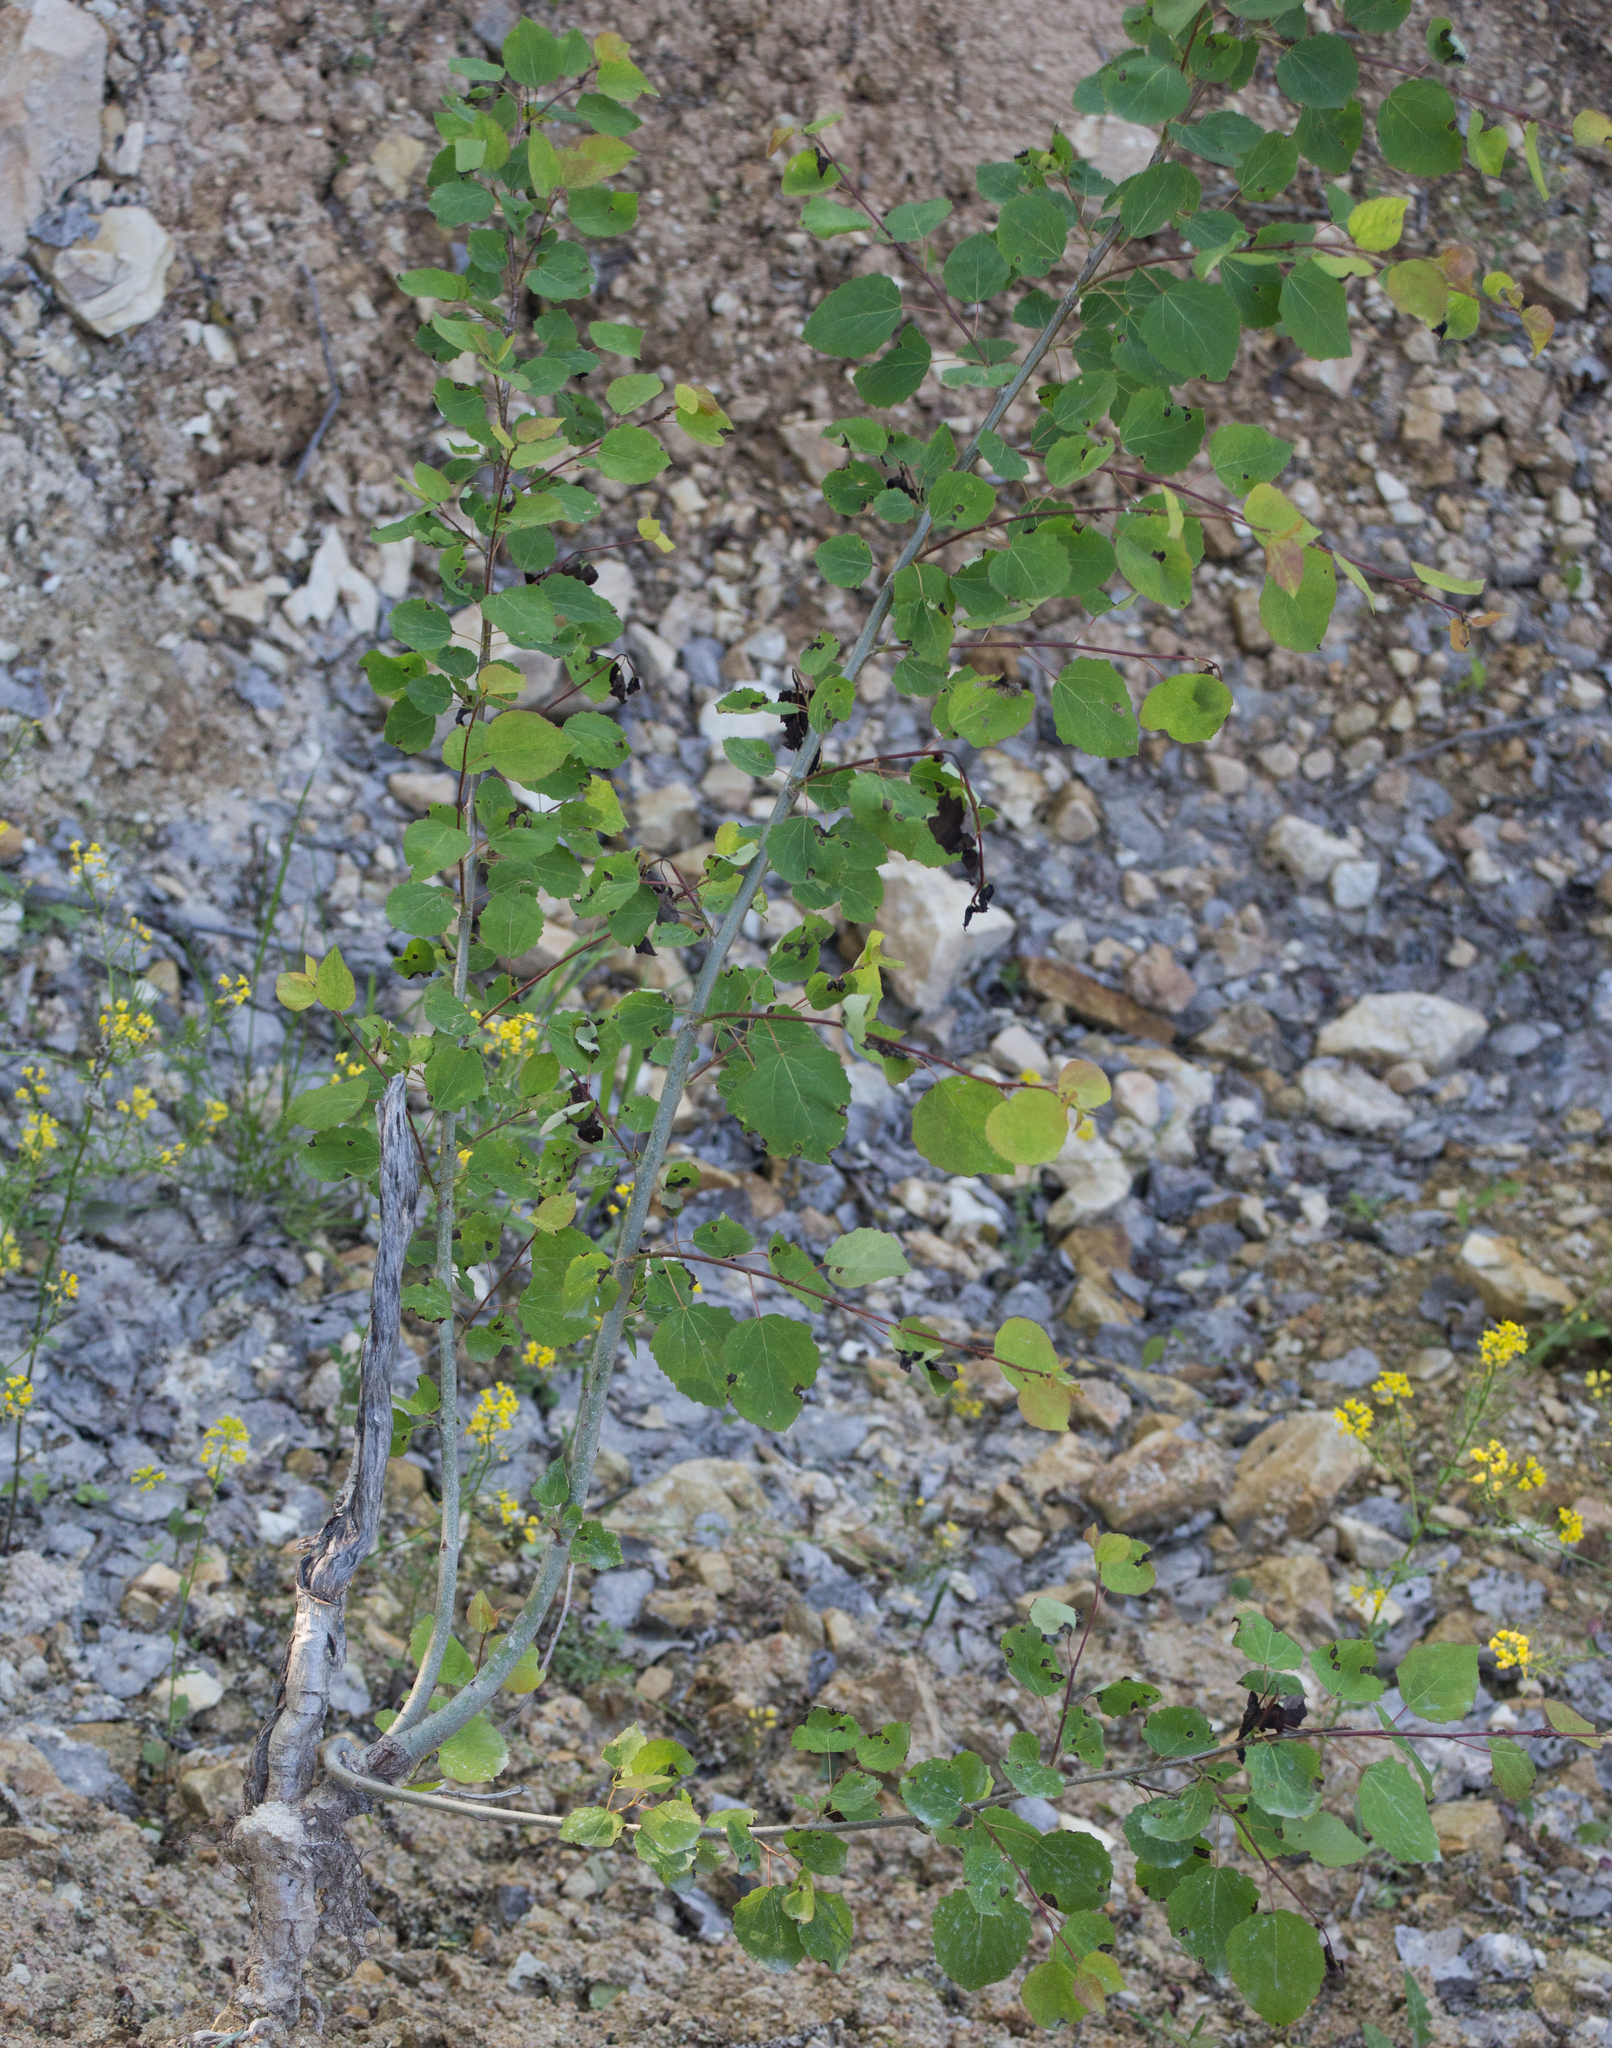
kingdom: Plantae
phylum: Tracheophyta
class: Magnoliopsida
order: Malpighiales
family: Salicaceae
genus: Populus
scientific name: Populus tremula
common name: European aspen
